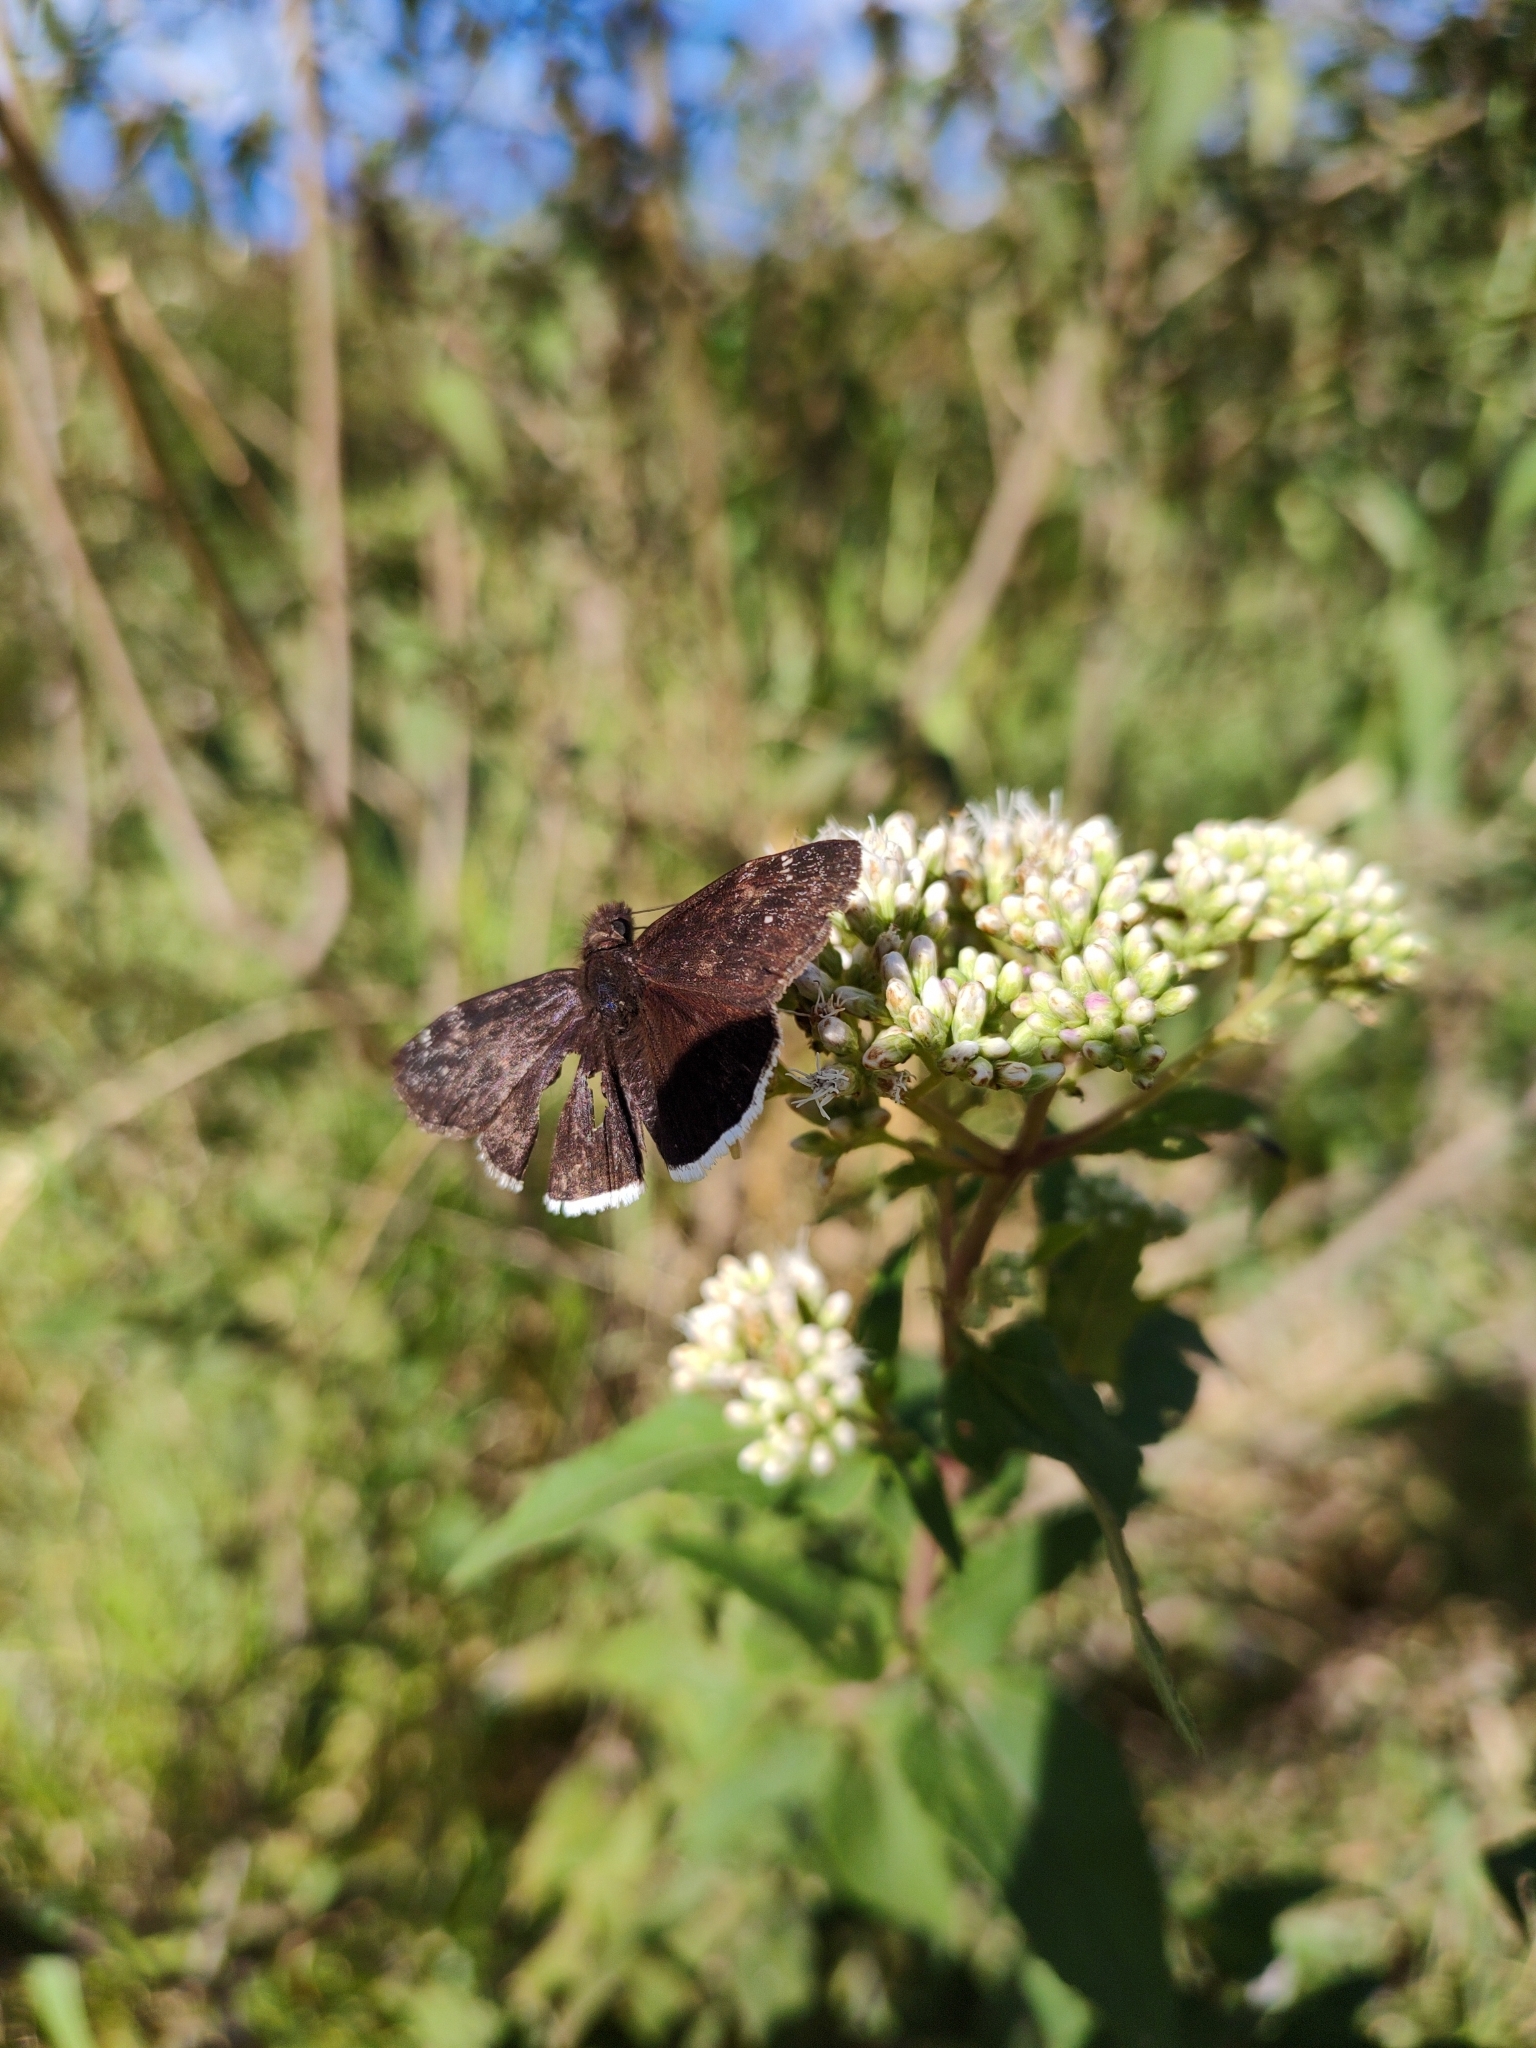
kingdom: Animalia
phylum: Arthropoda
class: Insecta
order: Lepidoptera
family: Hesperiidae
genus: Erynnis
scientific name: Erynnis funeralis
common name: Funereal duskywing
